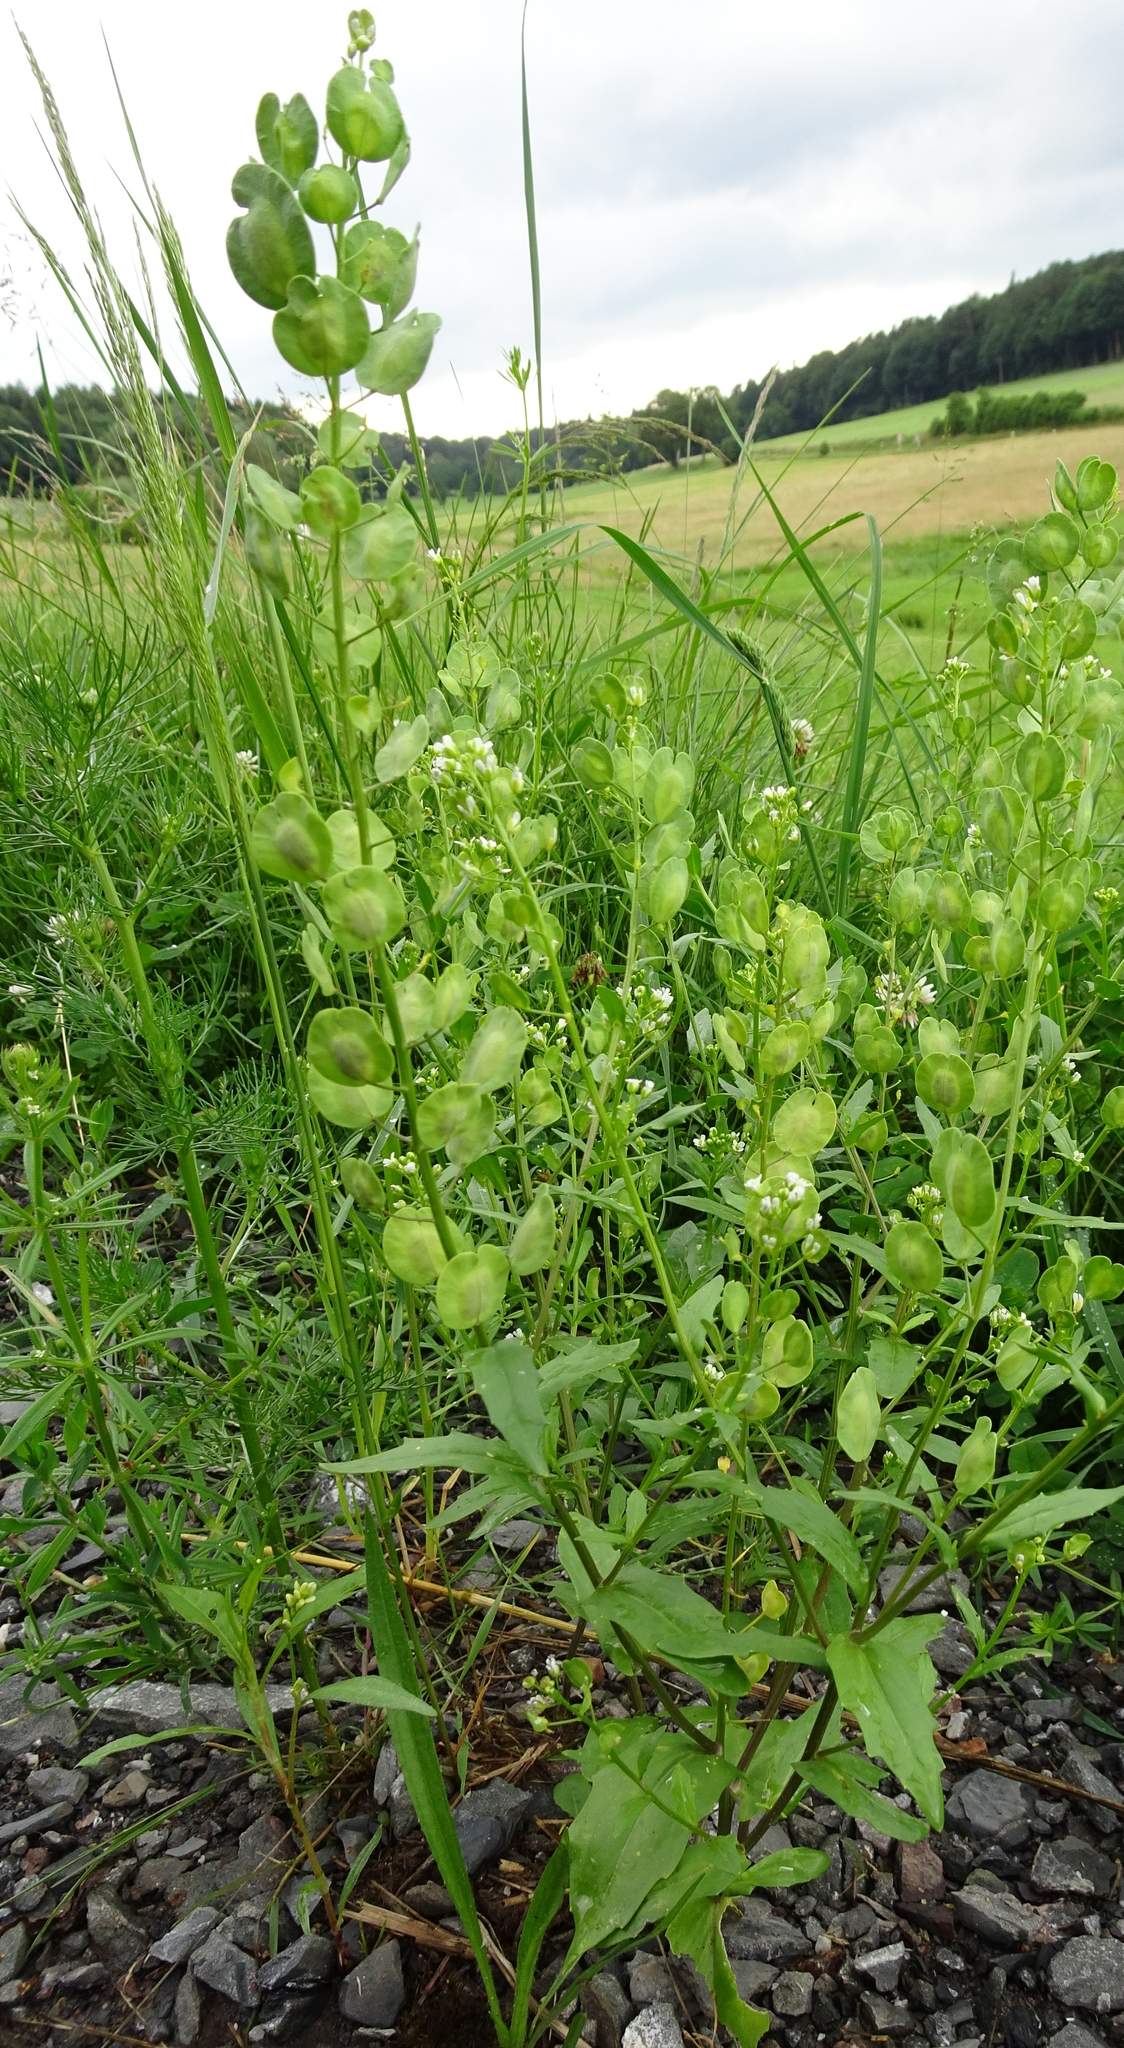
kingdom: Plantae
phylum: Tracheophyta
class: Magnoliopsida
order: Brassicales
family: Brassicaceae
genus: Thlaspi
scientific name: Thlaspi arvense
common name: Field pennycress
